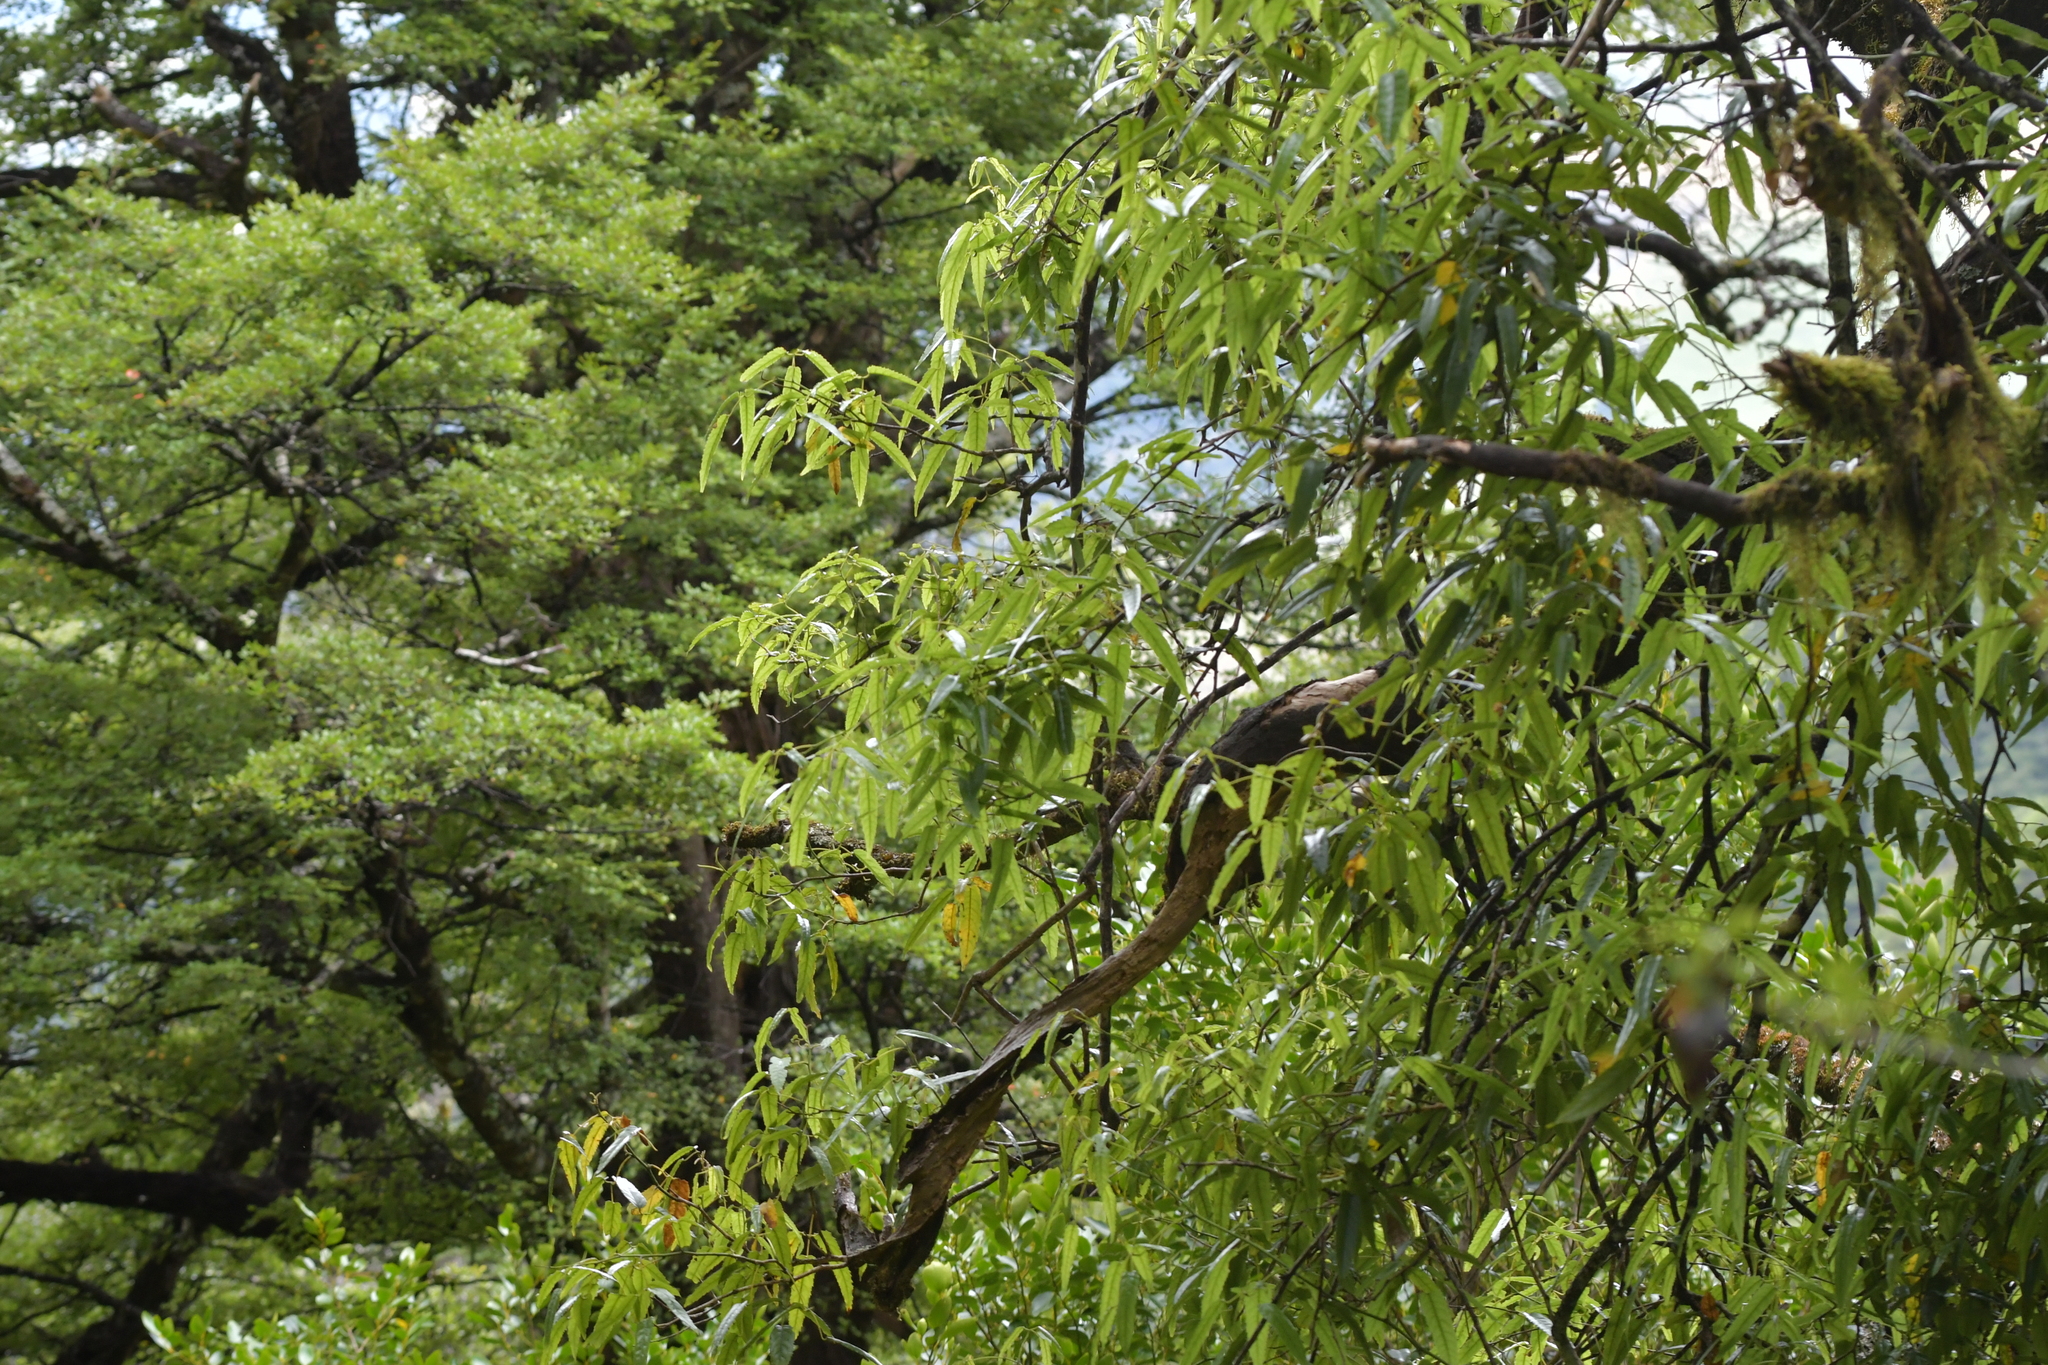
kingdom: Plantae
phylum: Tracheophyta
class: Magnoliopsida
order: Rosales
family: Rosaceae
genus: Rubus
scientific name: Rubus cissoides
